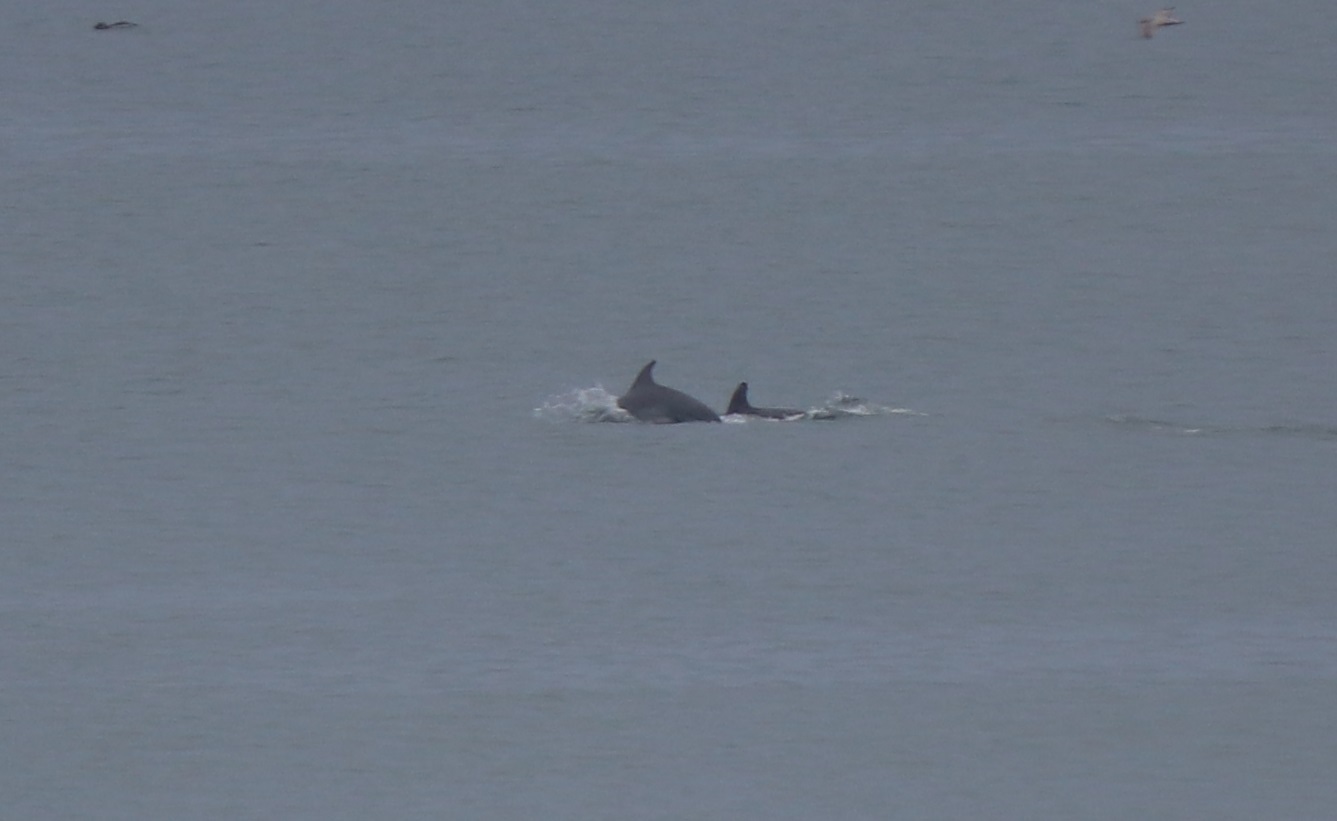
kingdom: Animalia
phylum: Chordata
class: Mammalia
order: Cetacea
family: Delphinidae
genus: Tursiops
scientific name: Tursiops truncatus
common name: Bottlenose dolphin
